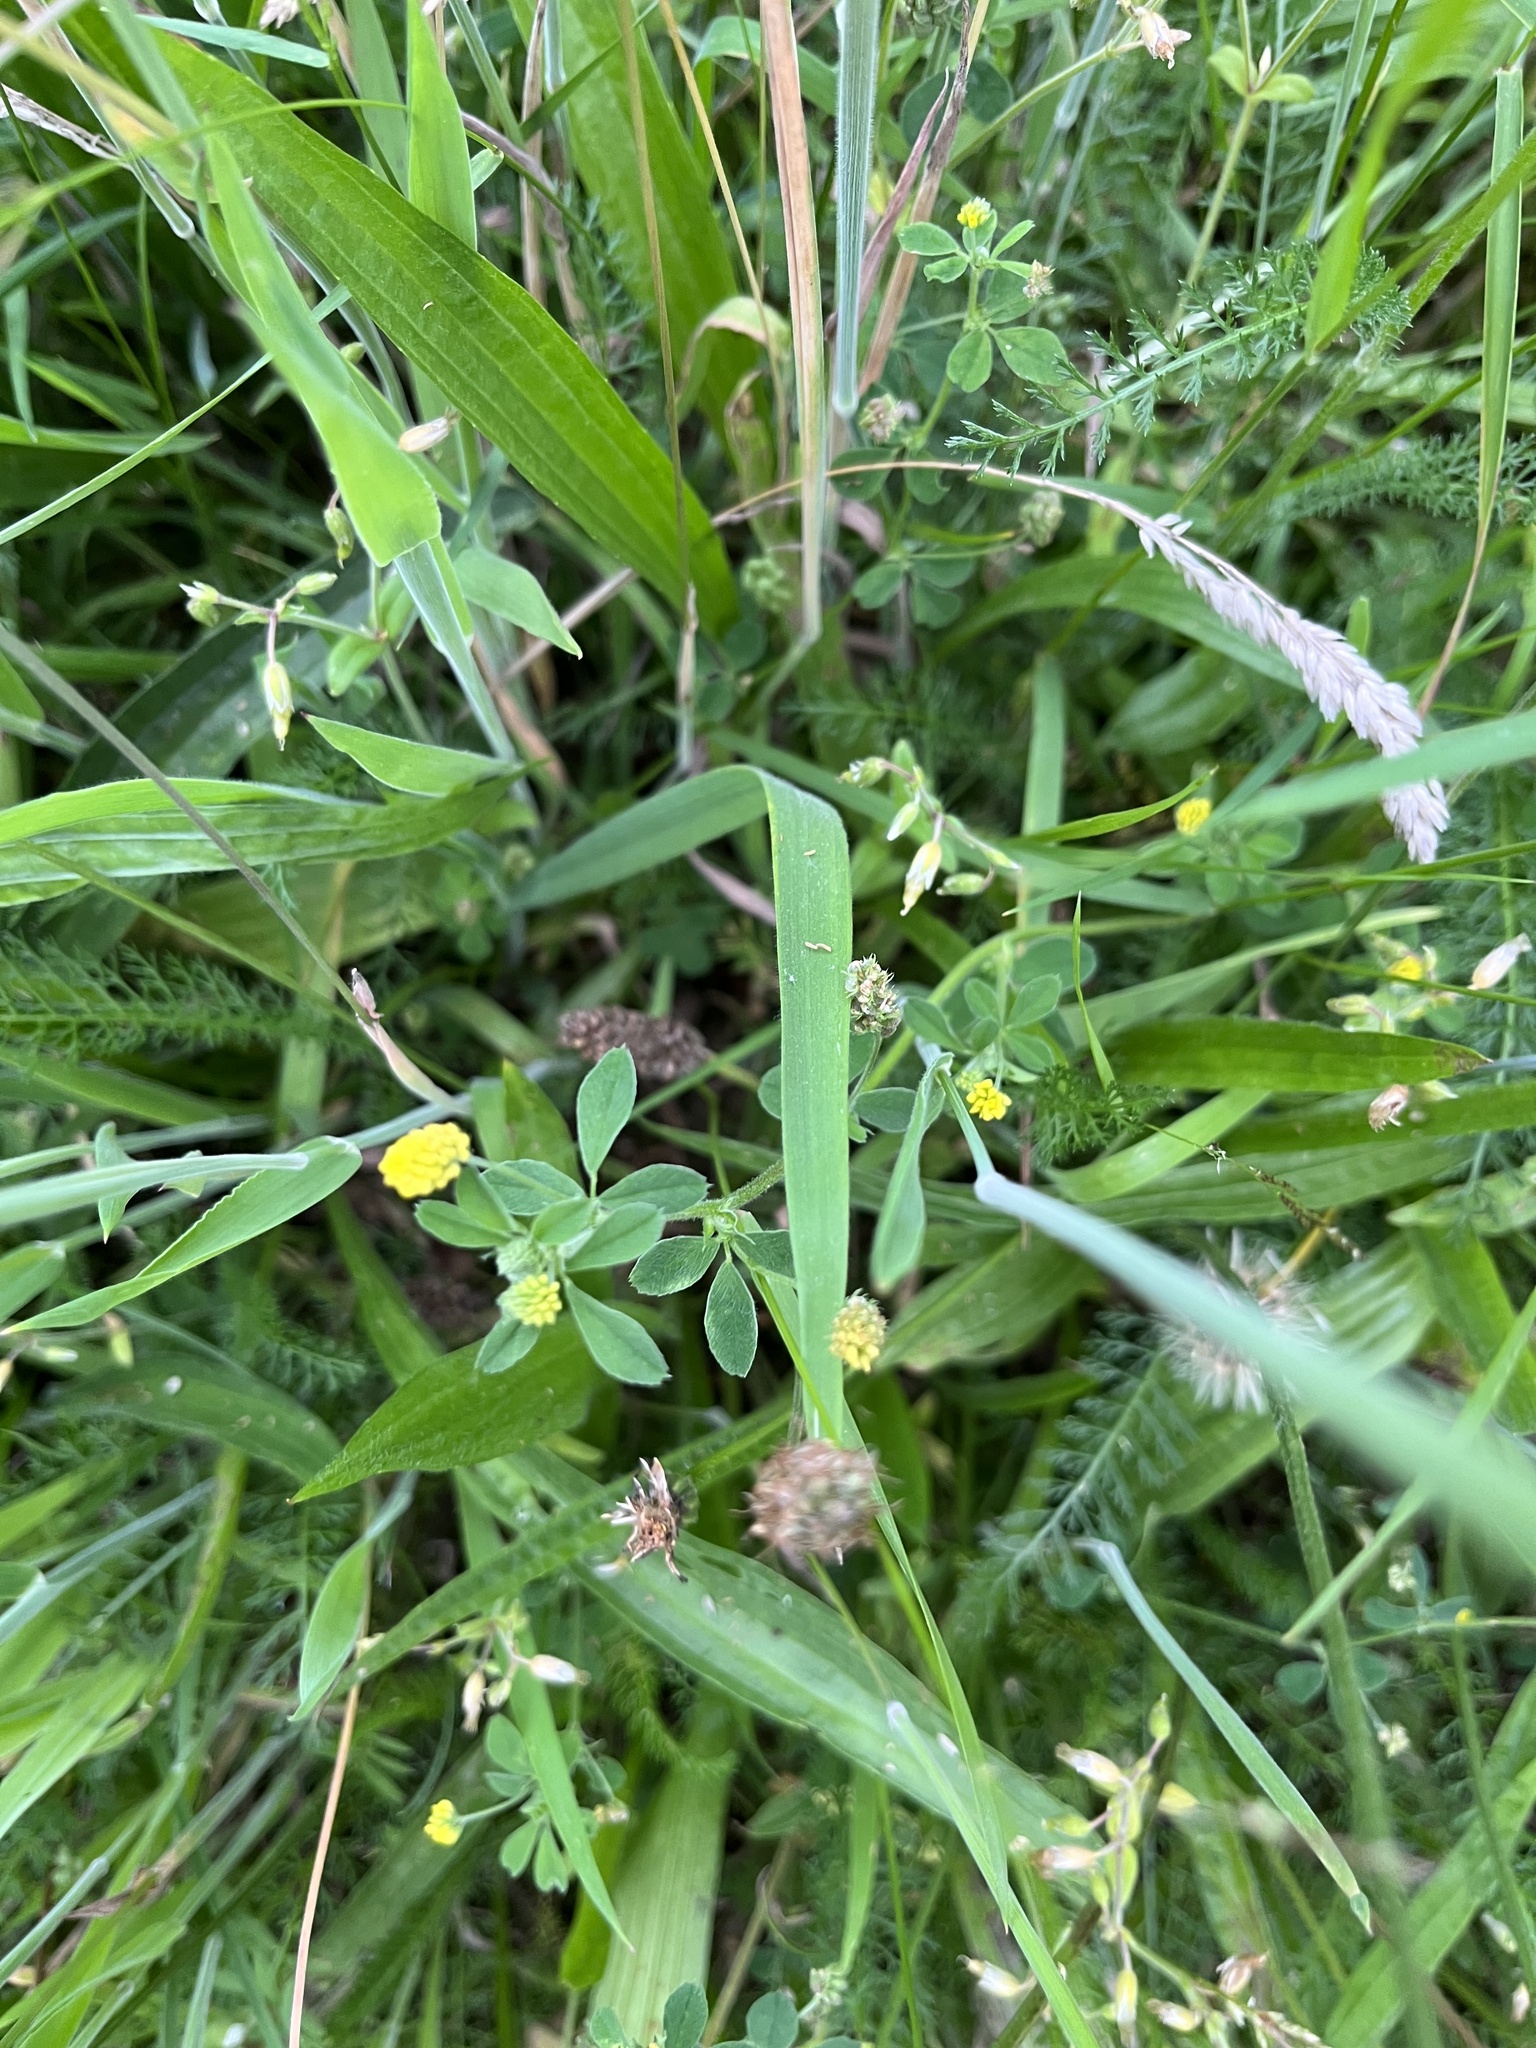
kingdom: Plantae
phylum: Tracheophyta
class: Magnoliopsida
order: Fabales
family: Fabaceae
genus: Medicago
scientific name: Medicago lupulina
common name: Black medick
